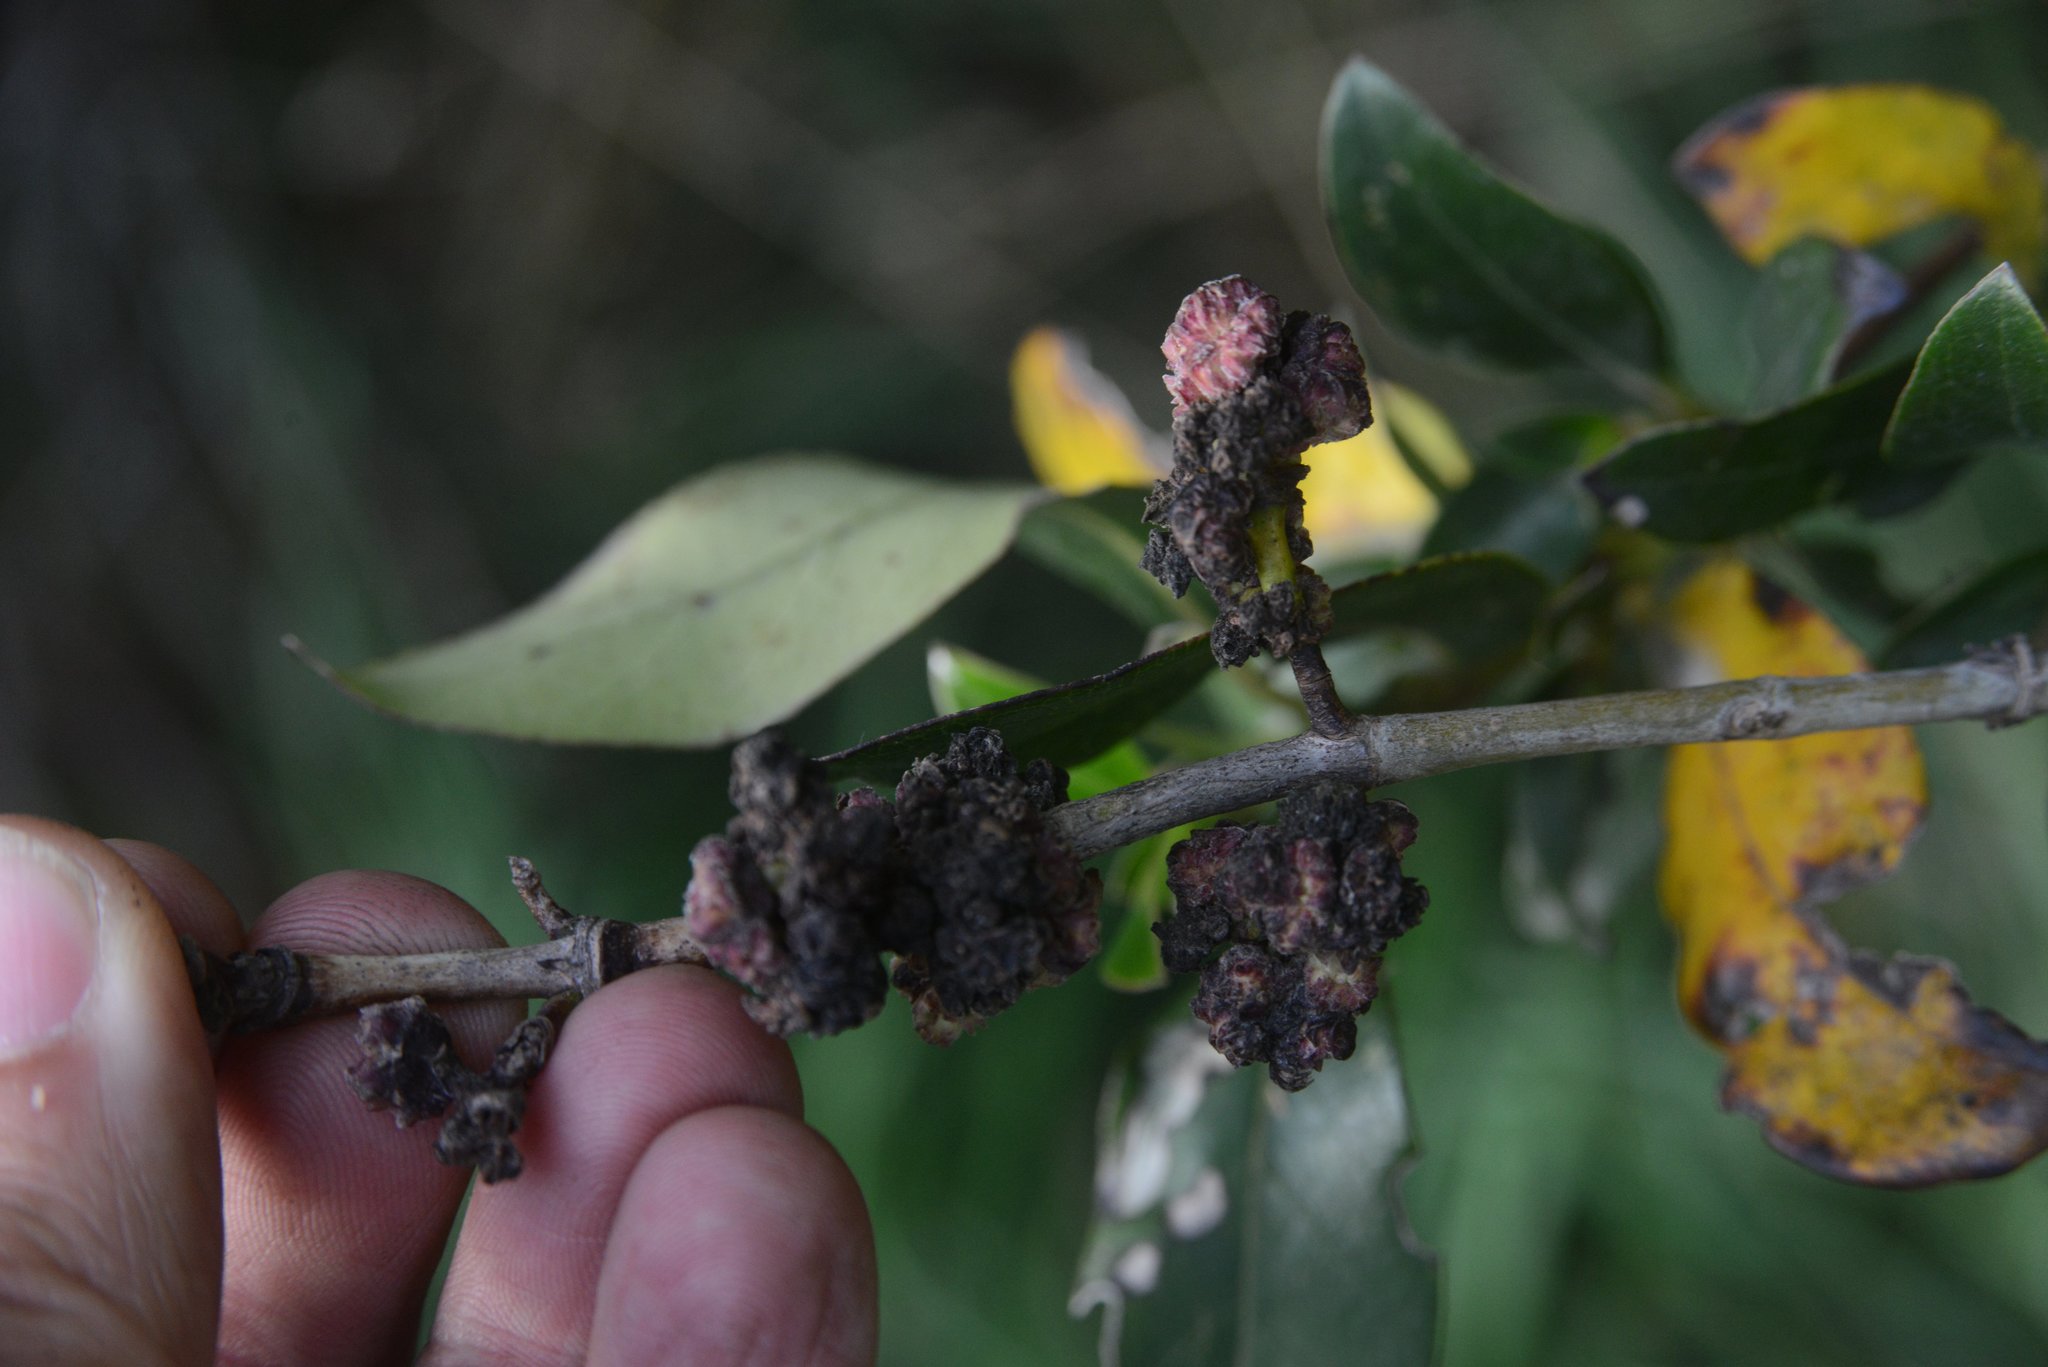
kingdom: Animalia
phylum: Arthropoda
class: Arachnida
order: Trombidiformes
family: Eriophyidae
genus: Acalitus
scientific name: Acalitus
